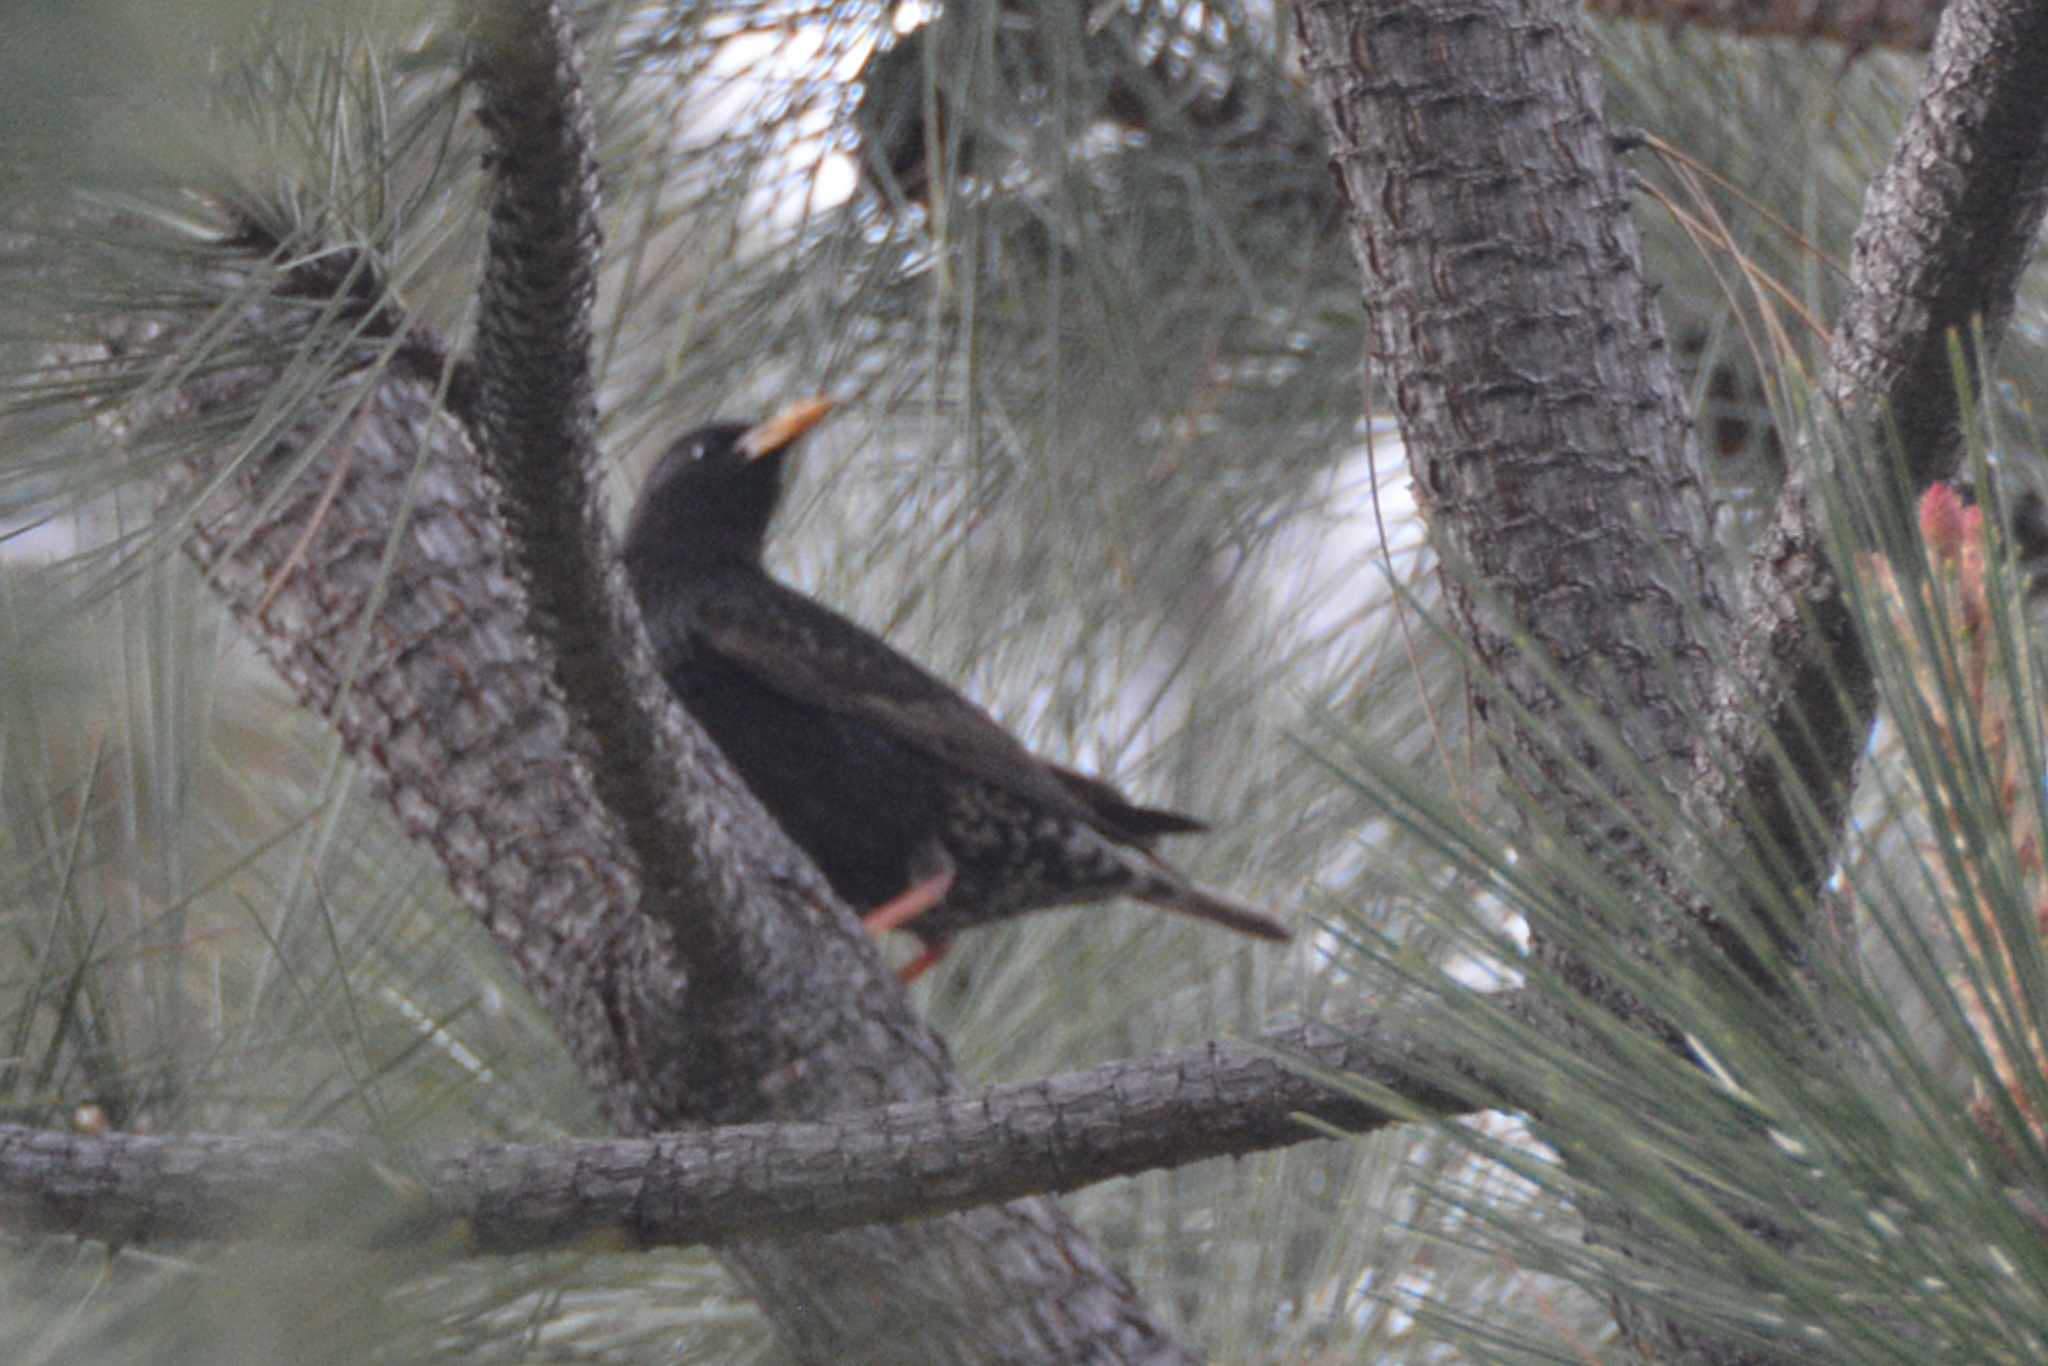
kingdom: Animalia
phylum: Chordata
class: Aves
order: Passeriformes
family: Sturnidae
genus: Sturnus
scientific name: Sturnus vulgaris
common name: Common starling
